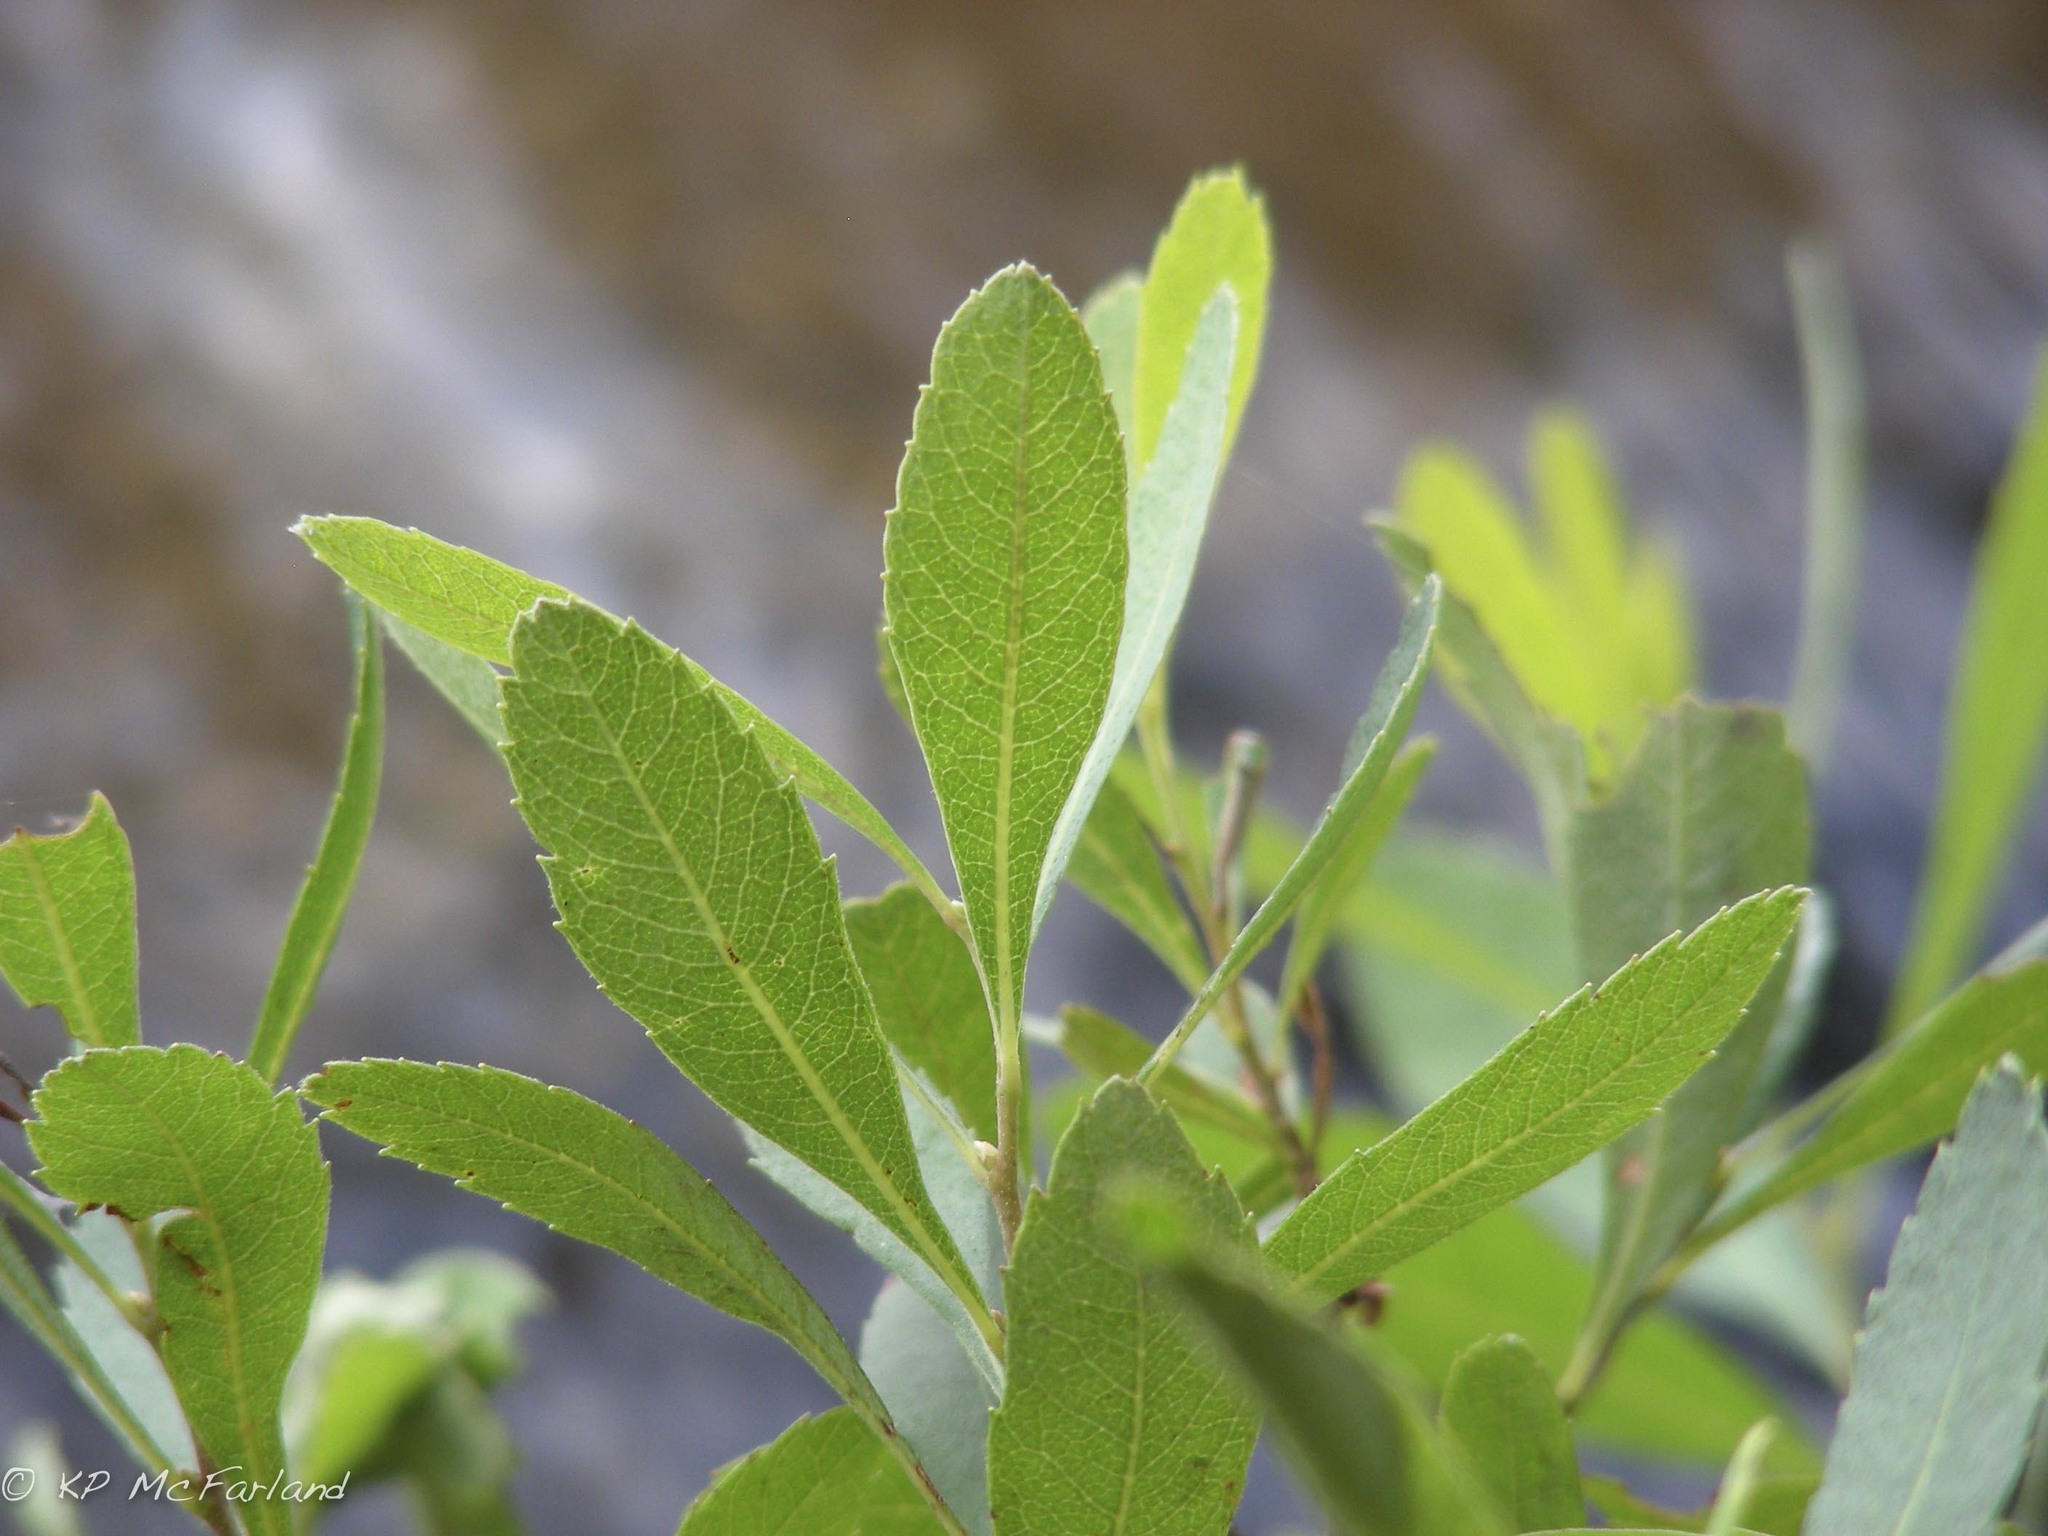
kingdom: Plantae
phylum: Tracheophyta
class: Magnoliopsida
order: Fagales
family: Myricaceae
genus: Myrica
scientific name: Myrica gale
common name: Sweet gale
